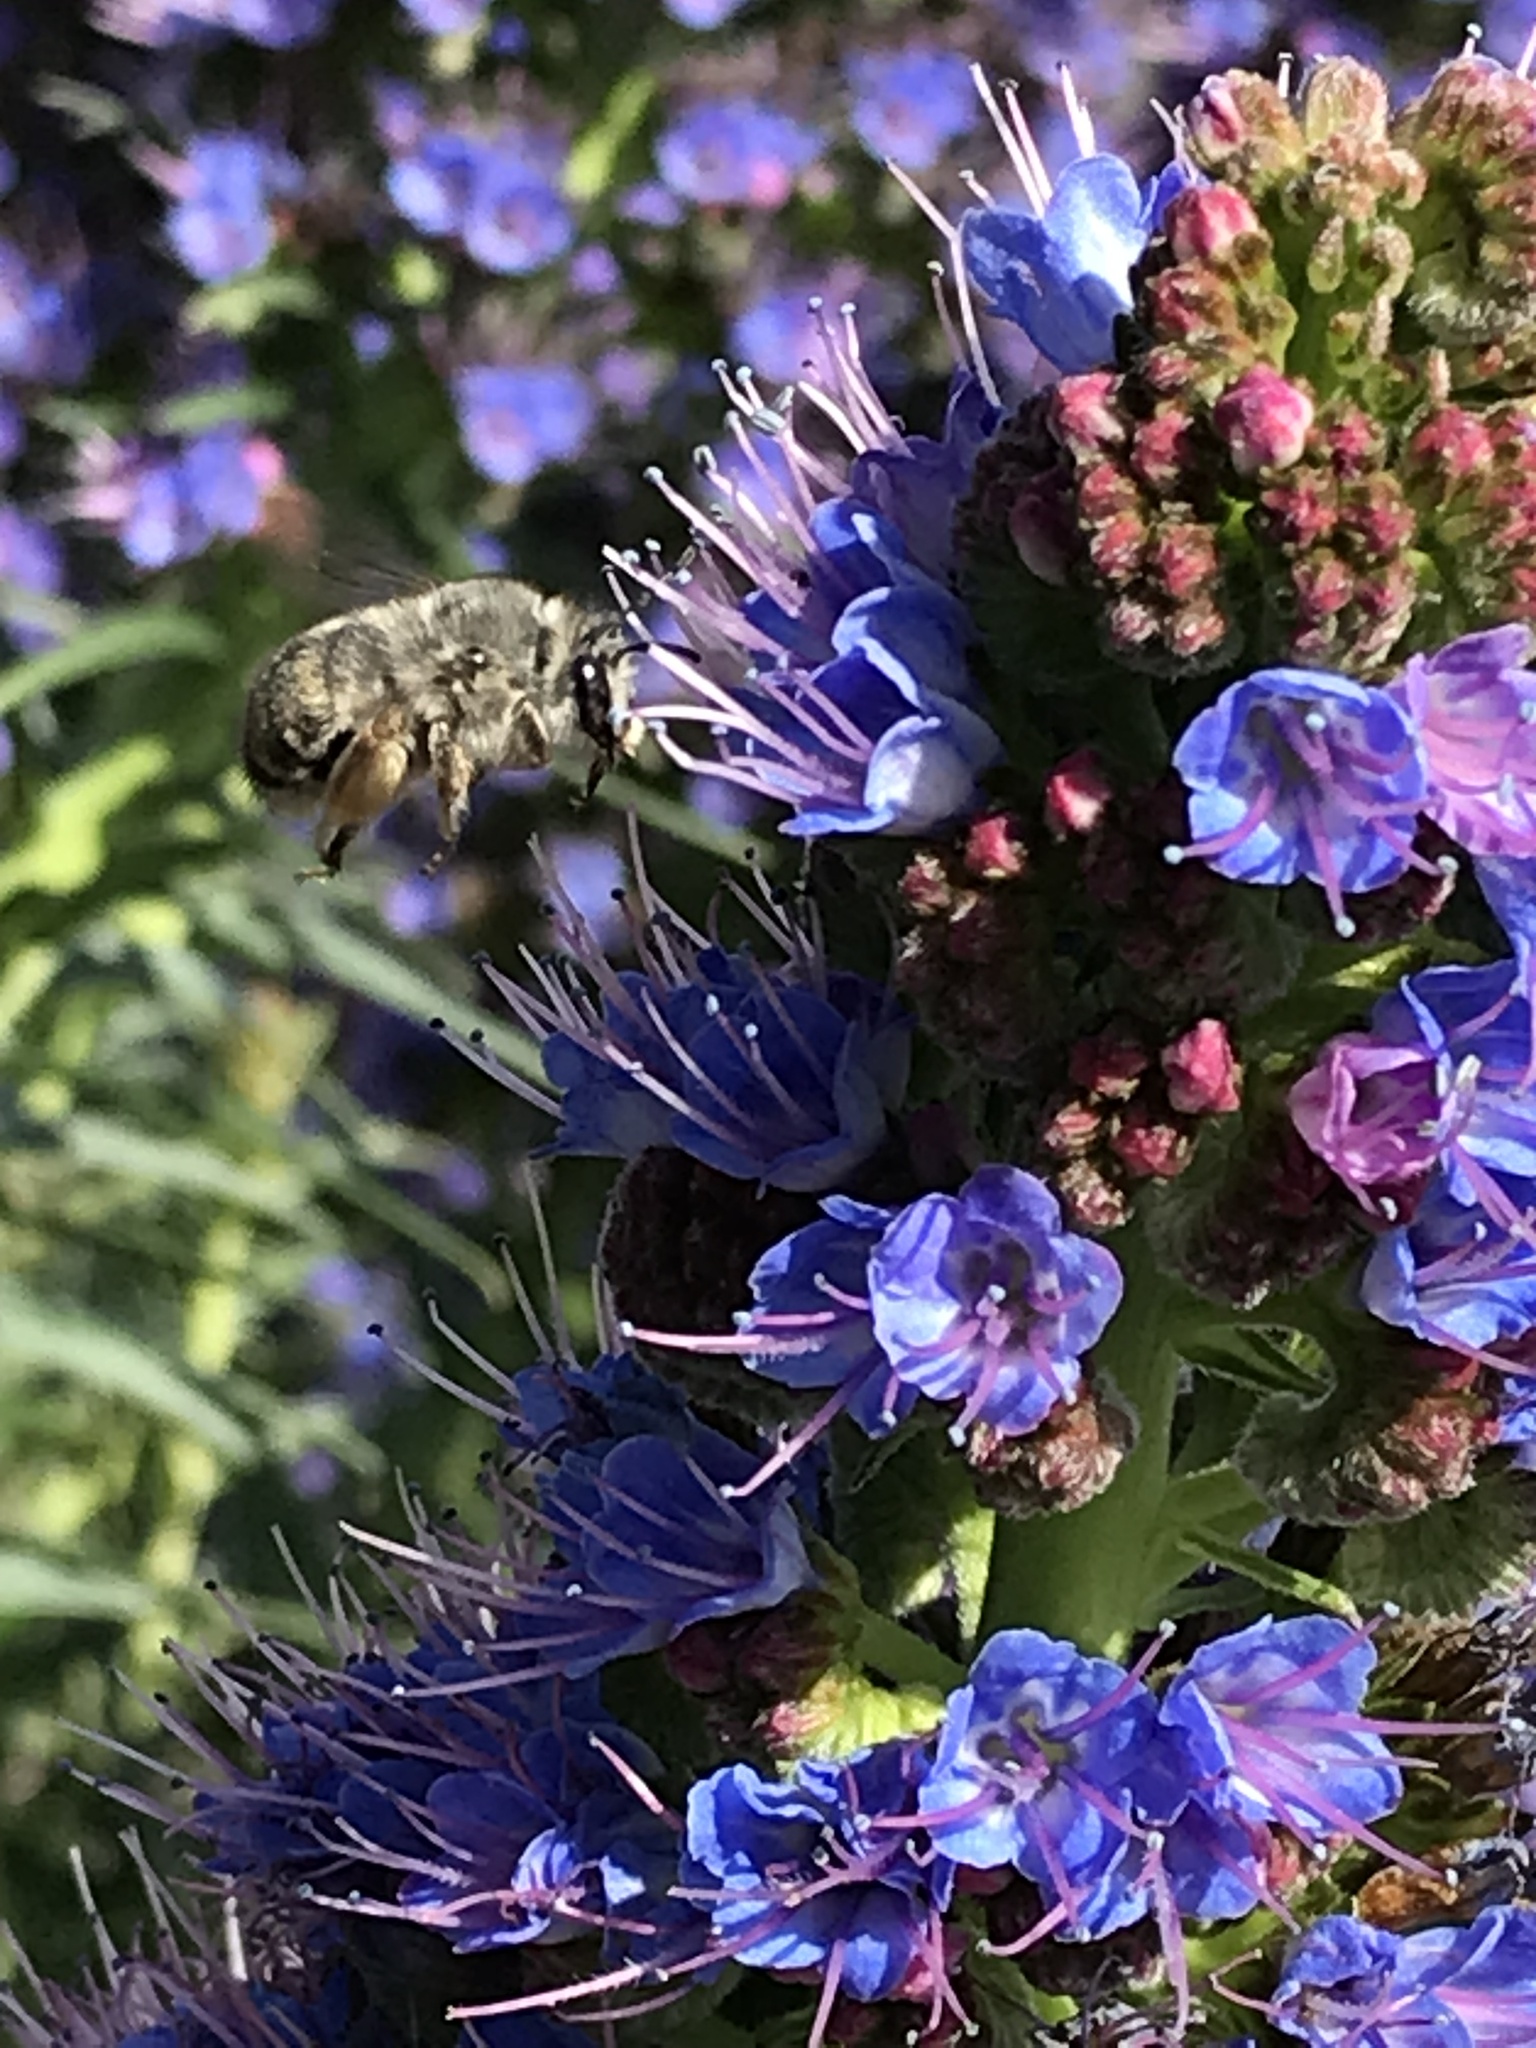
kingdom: Animalia
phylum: Arthropoda
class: Insecta
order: Hymenoptera
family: Apidae
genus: Habropoda
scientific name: Habropoda depressa
